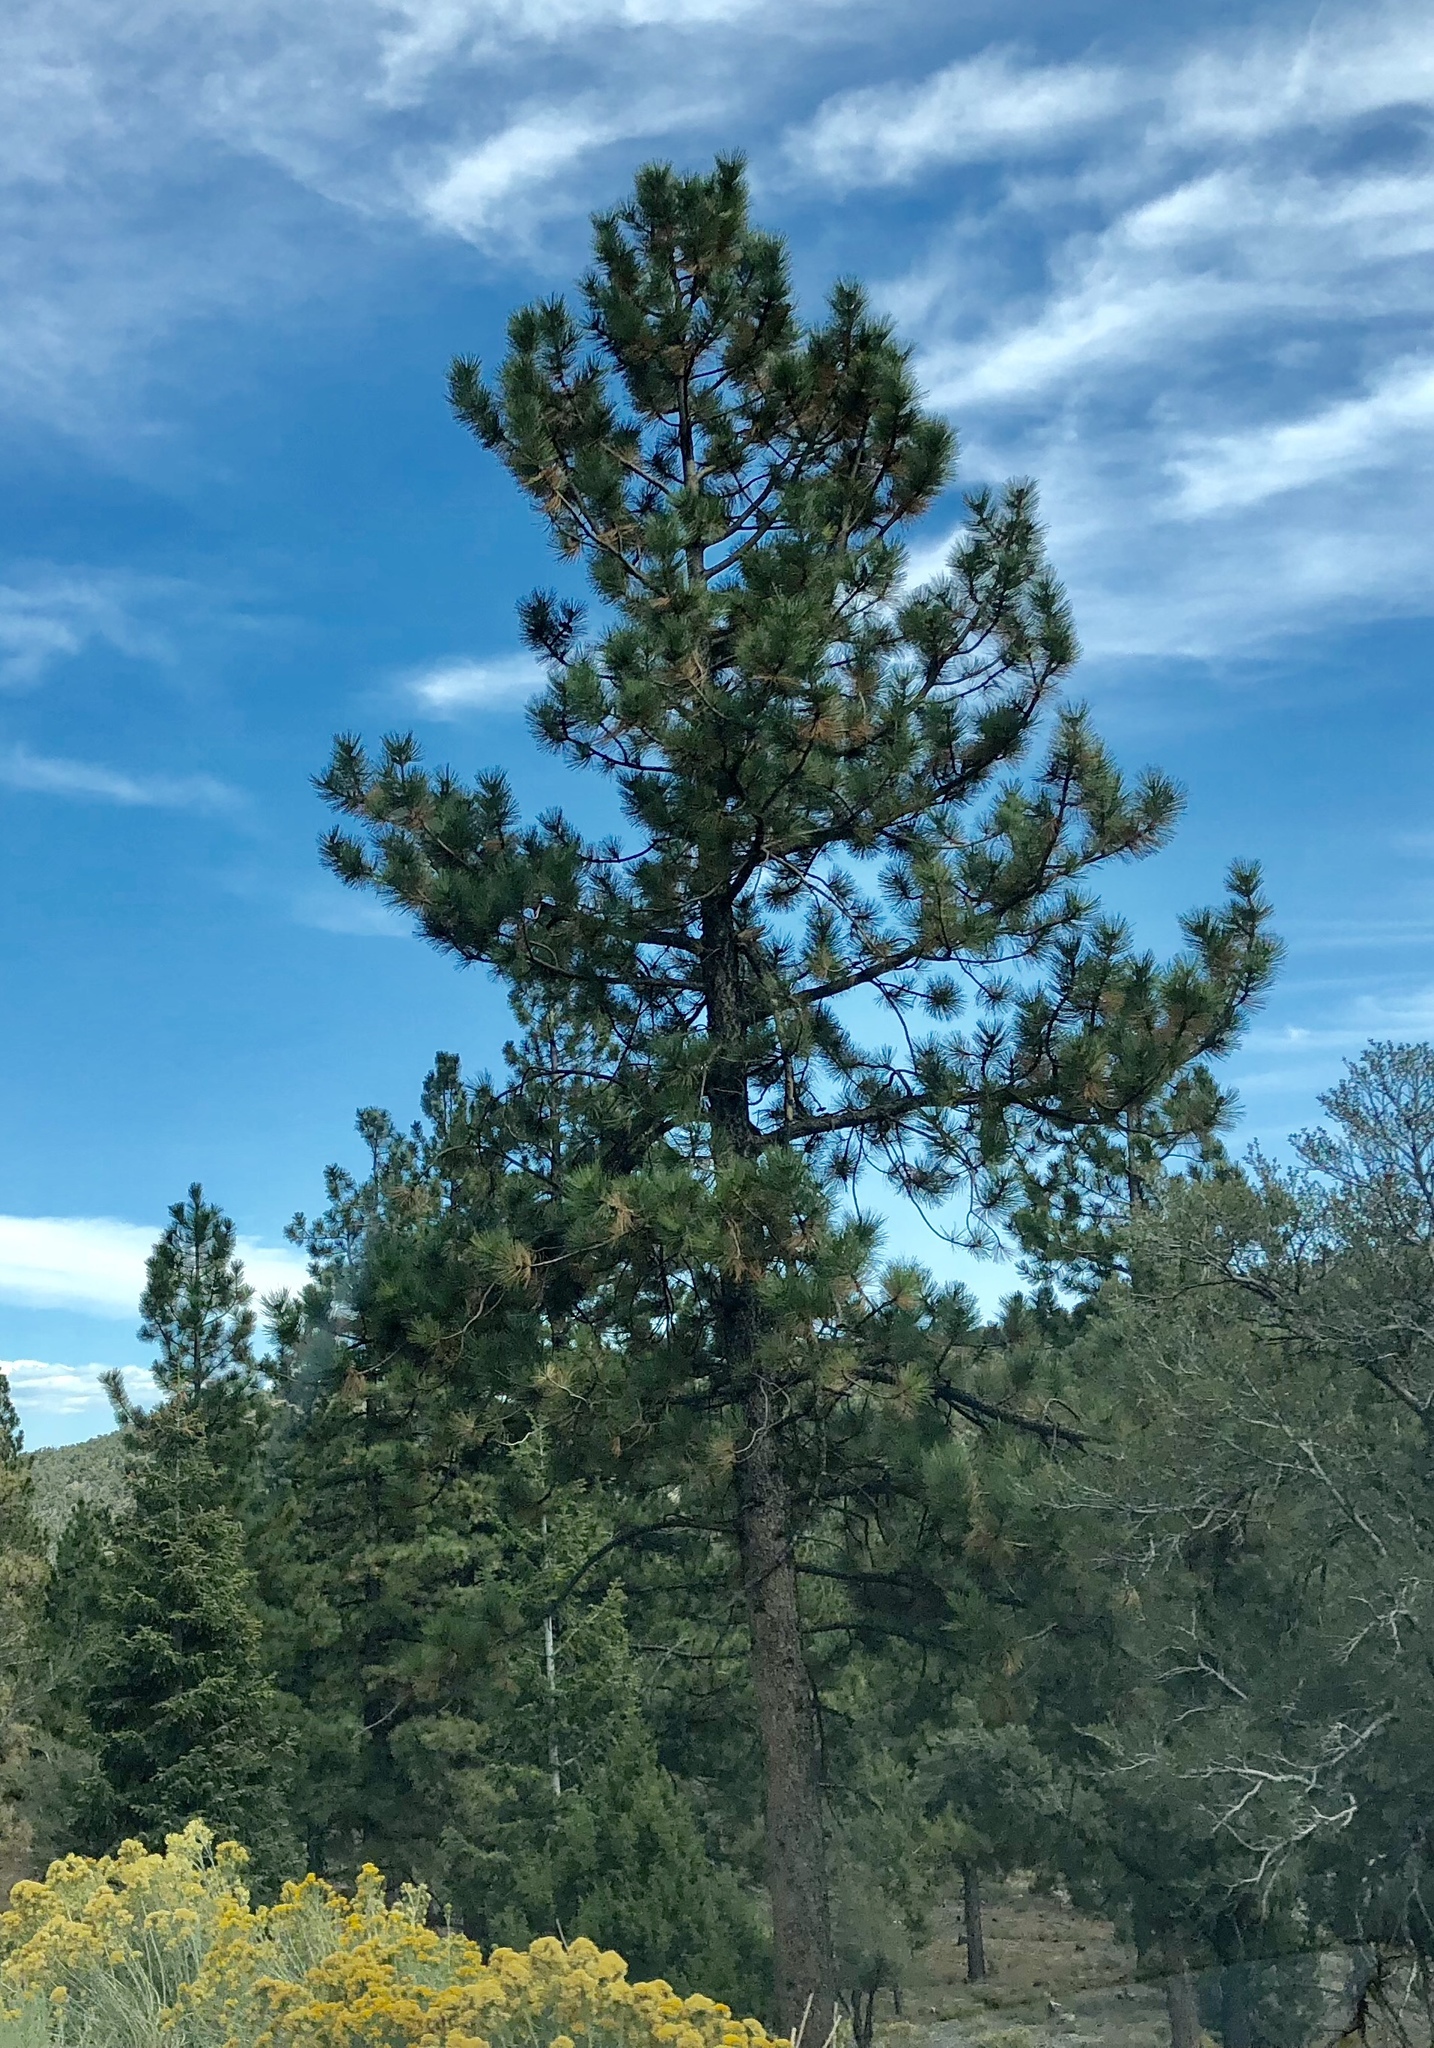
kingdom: Plantae
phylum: Tracheophyta
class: Pinopsida
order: Pinales
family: Pinaceae
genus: Pinus
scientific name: Pinus ponderosa
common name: Western yellow-pine
